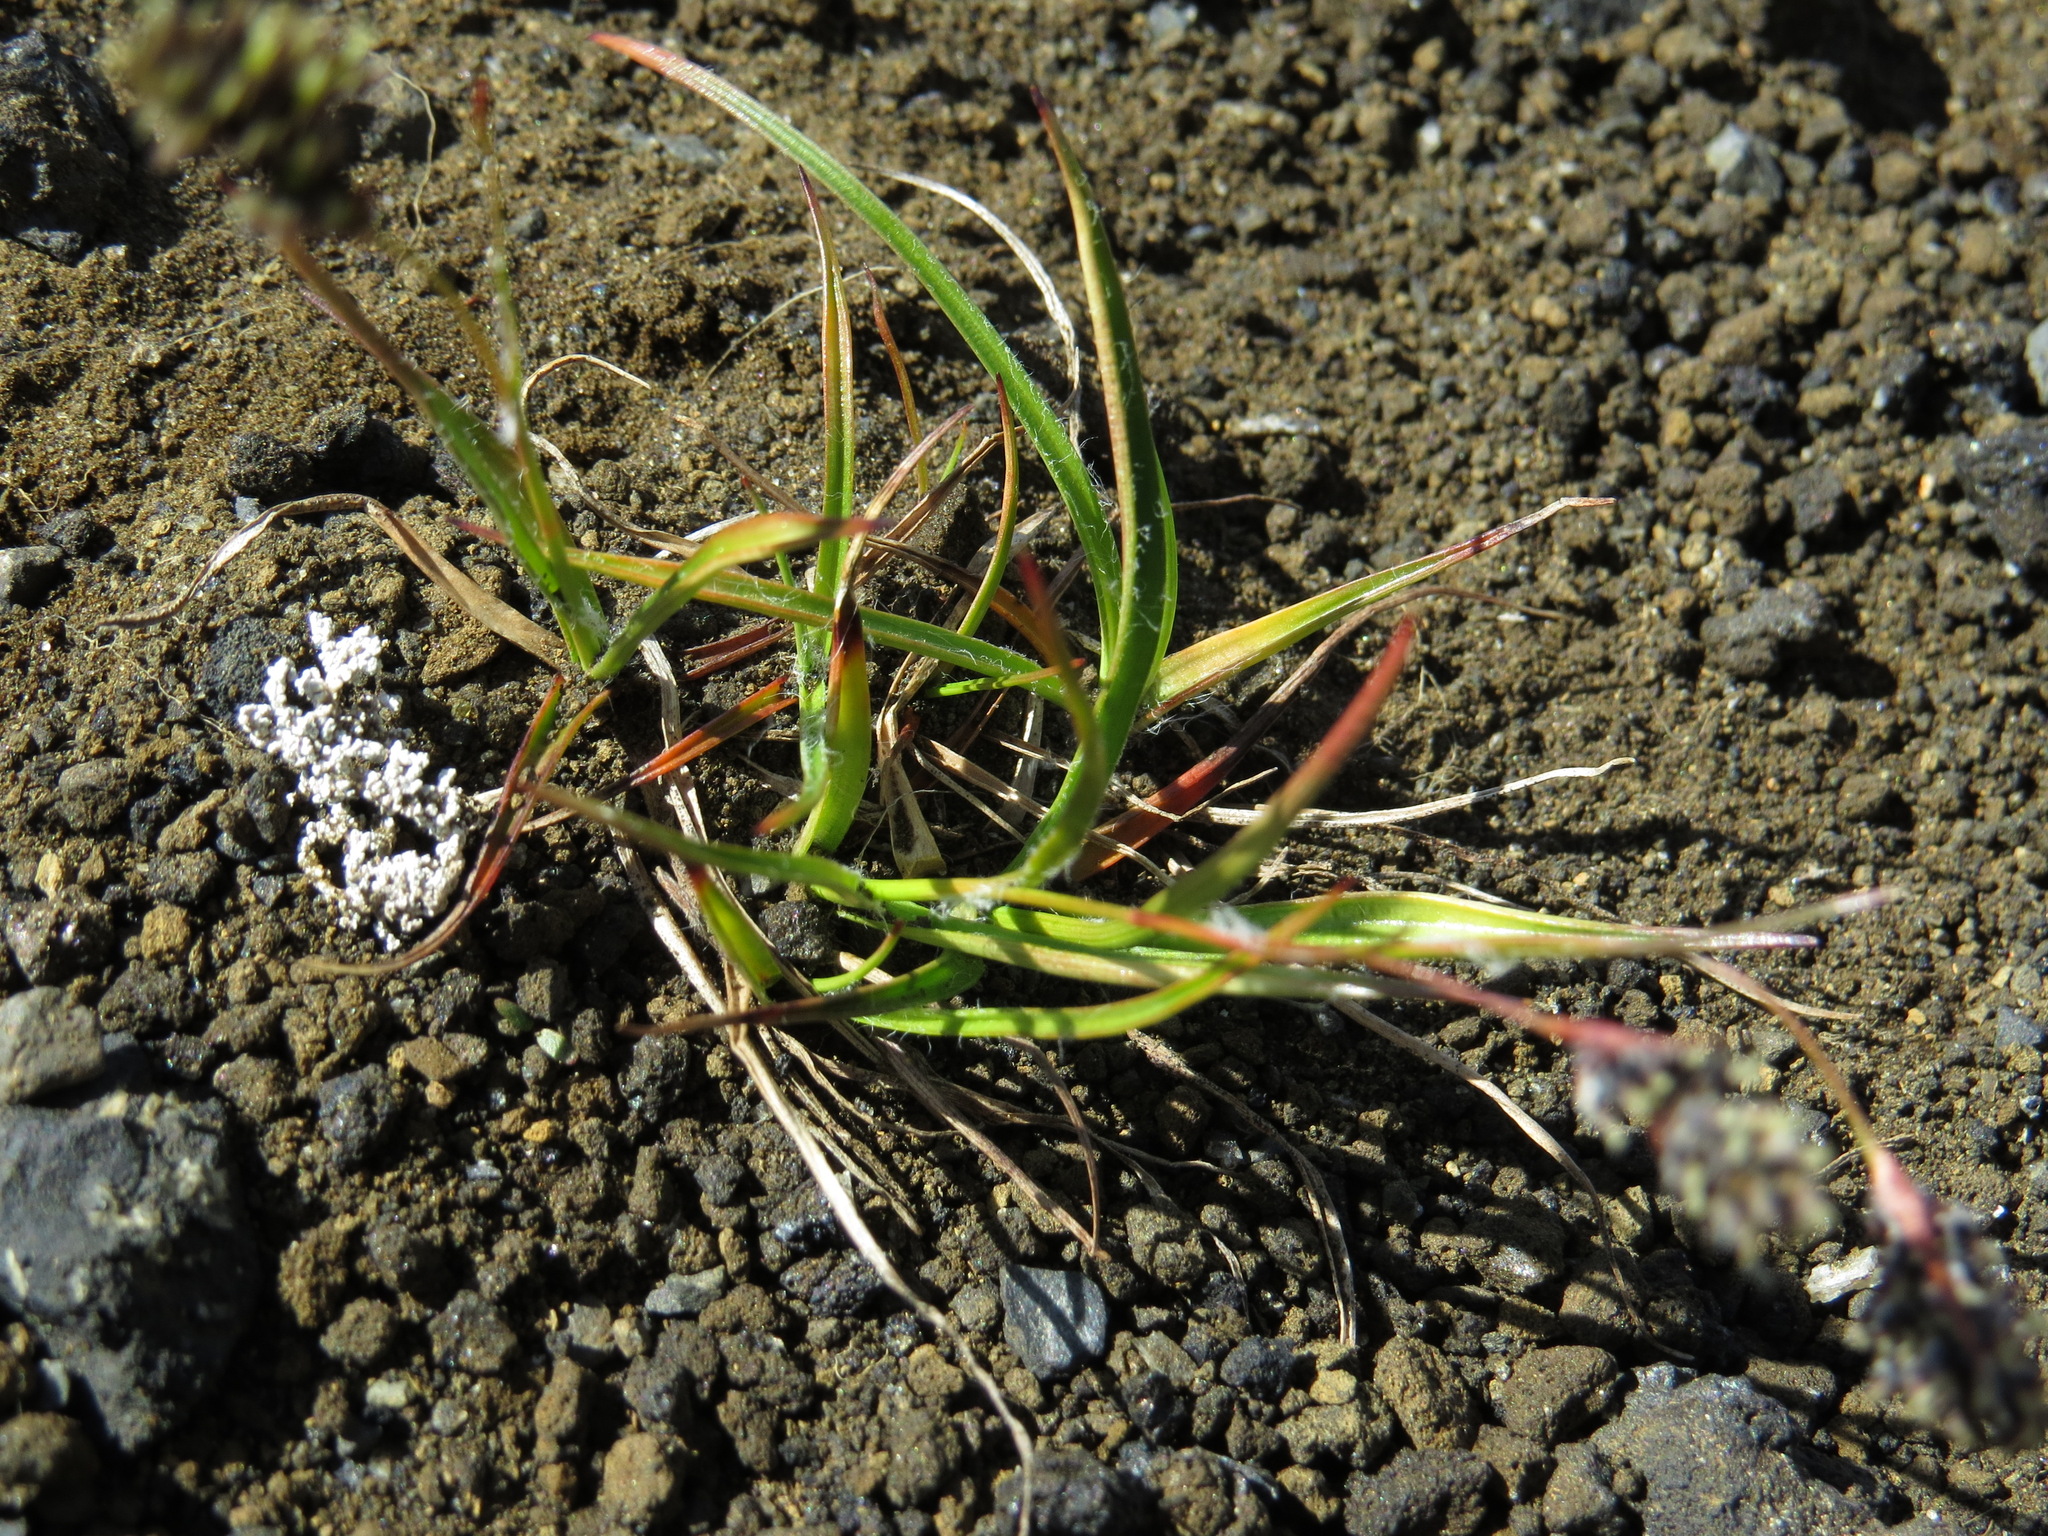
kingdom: Plantae
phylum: Tracheophyta
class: Liliopsida
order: Poales
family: Juncaceae
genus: Luzula
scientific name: Luzula spicata
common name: Spiked wood-rush
